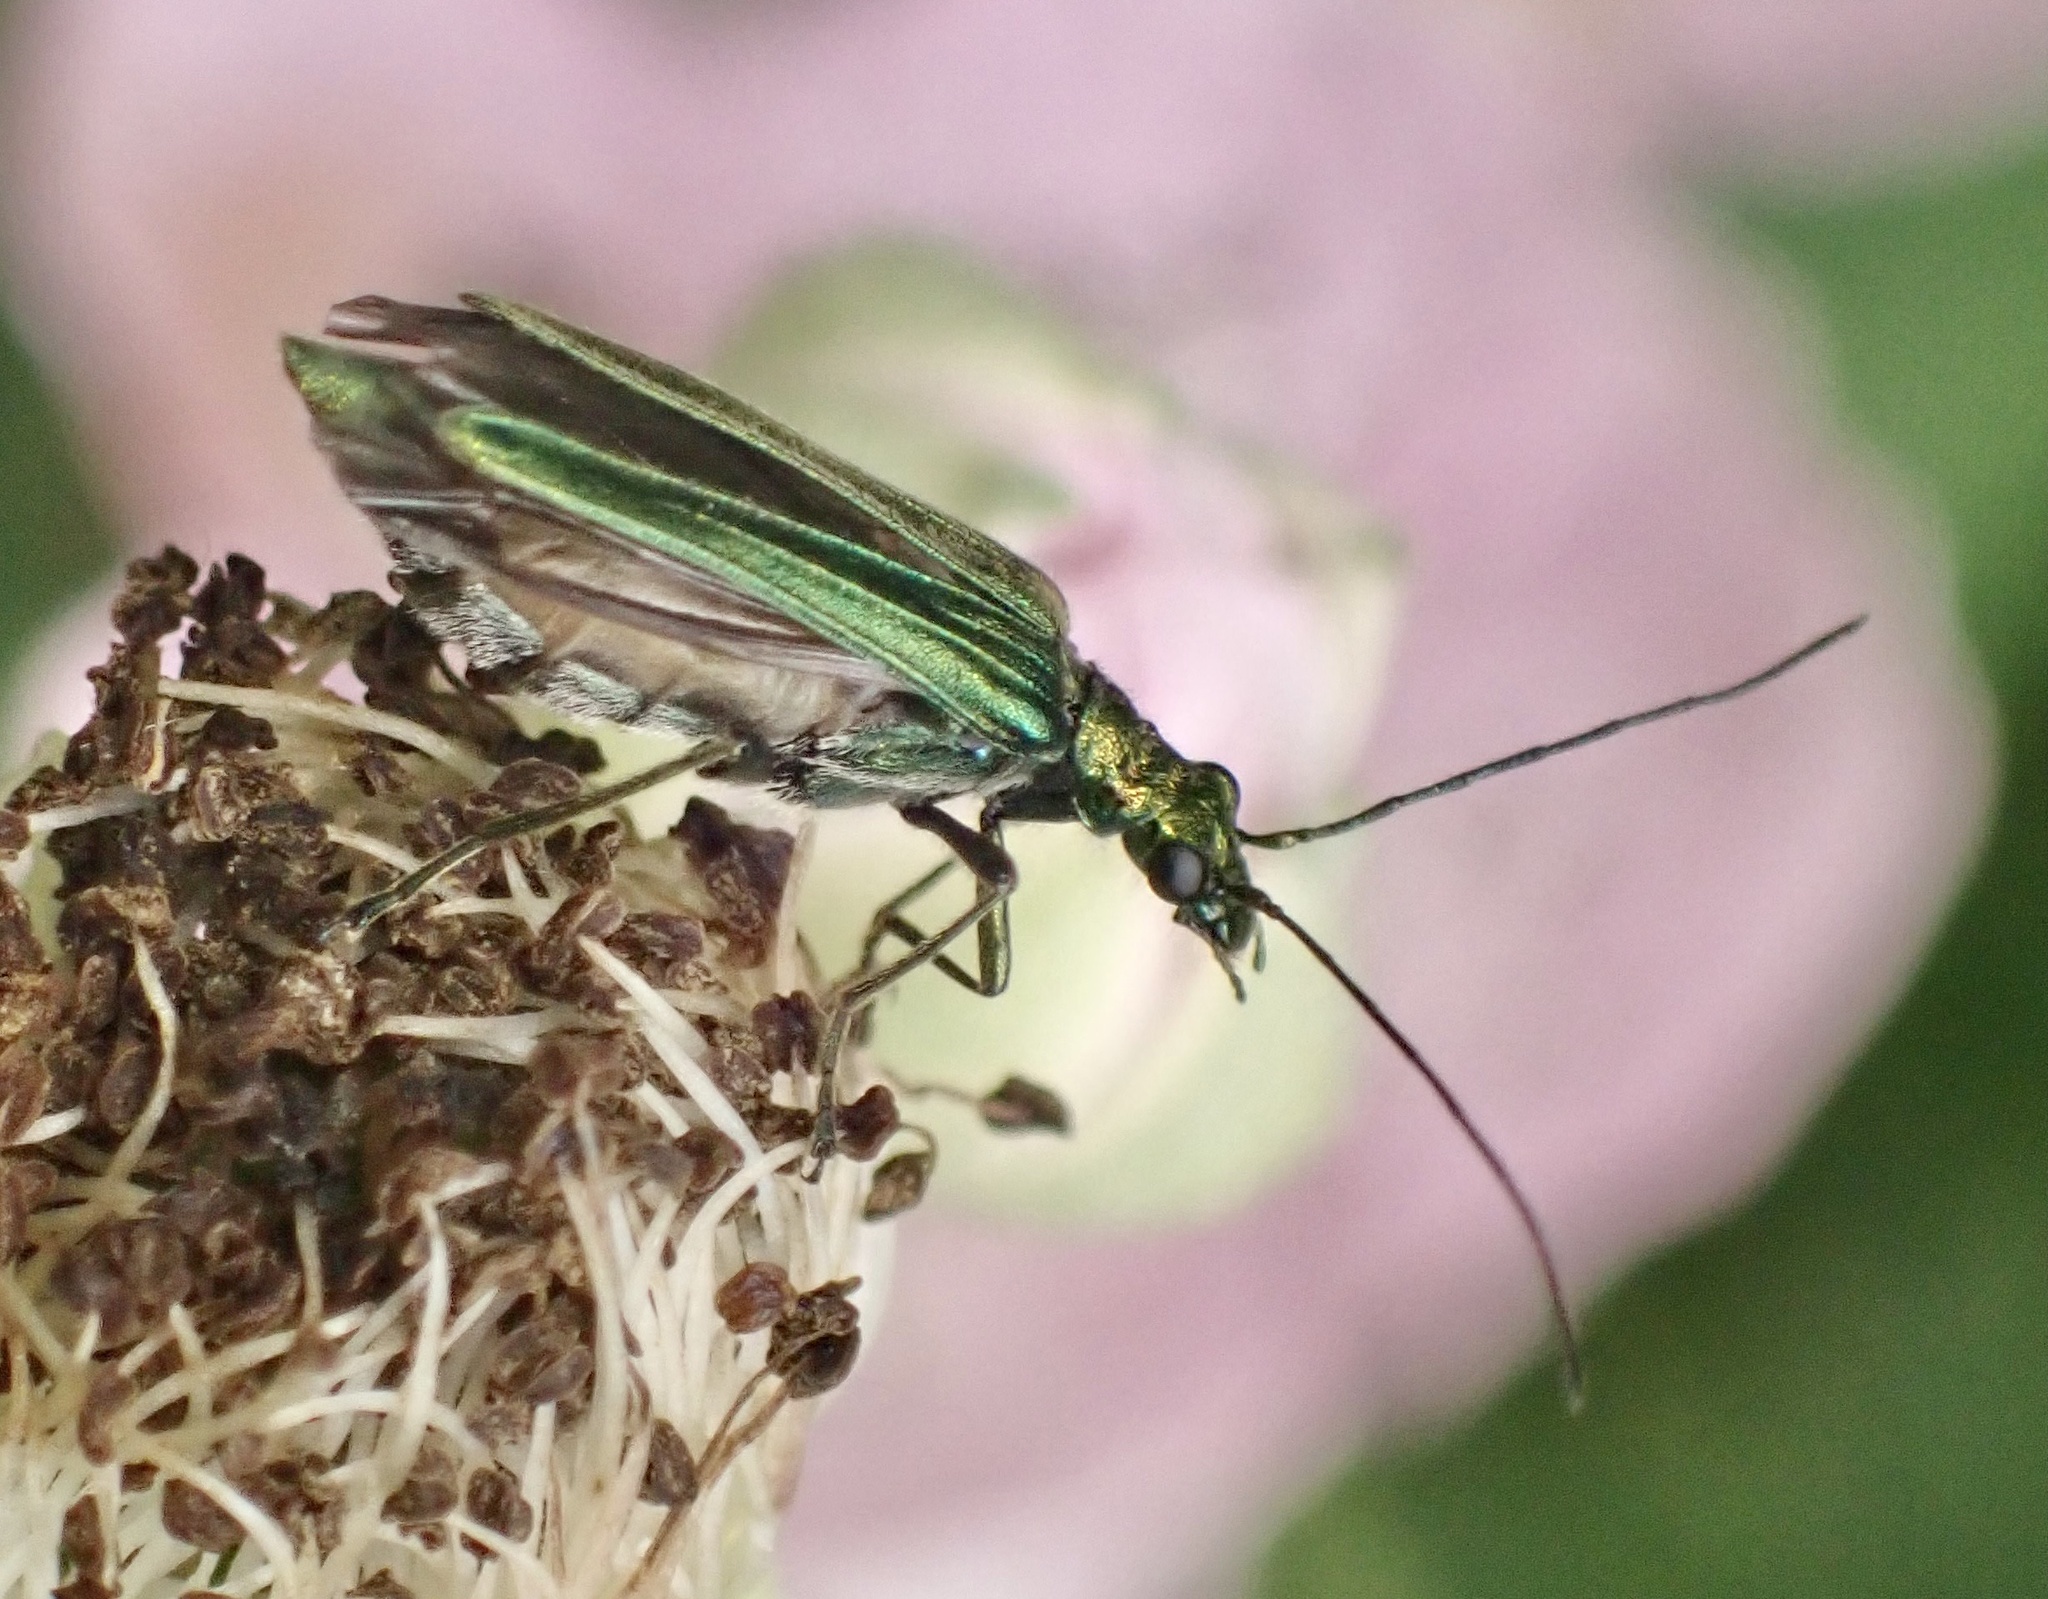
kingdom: Animalia
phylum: Arthropoda
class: Insecta
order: Coleoptera
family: Oedemeridae
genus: Oedemera
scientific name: Oedemera nobilis
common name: Swollen-thighed beetle
